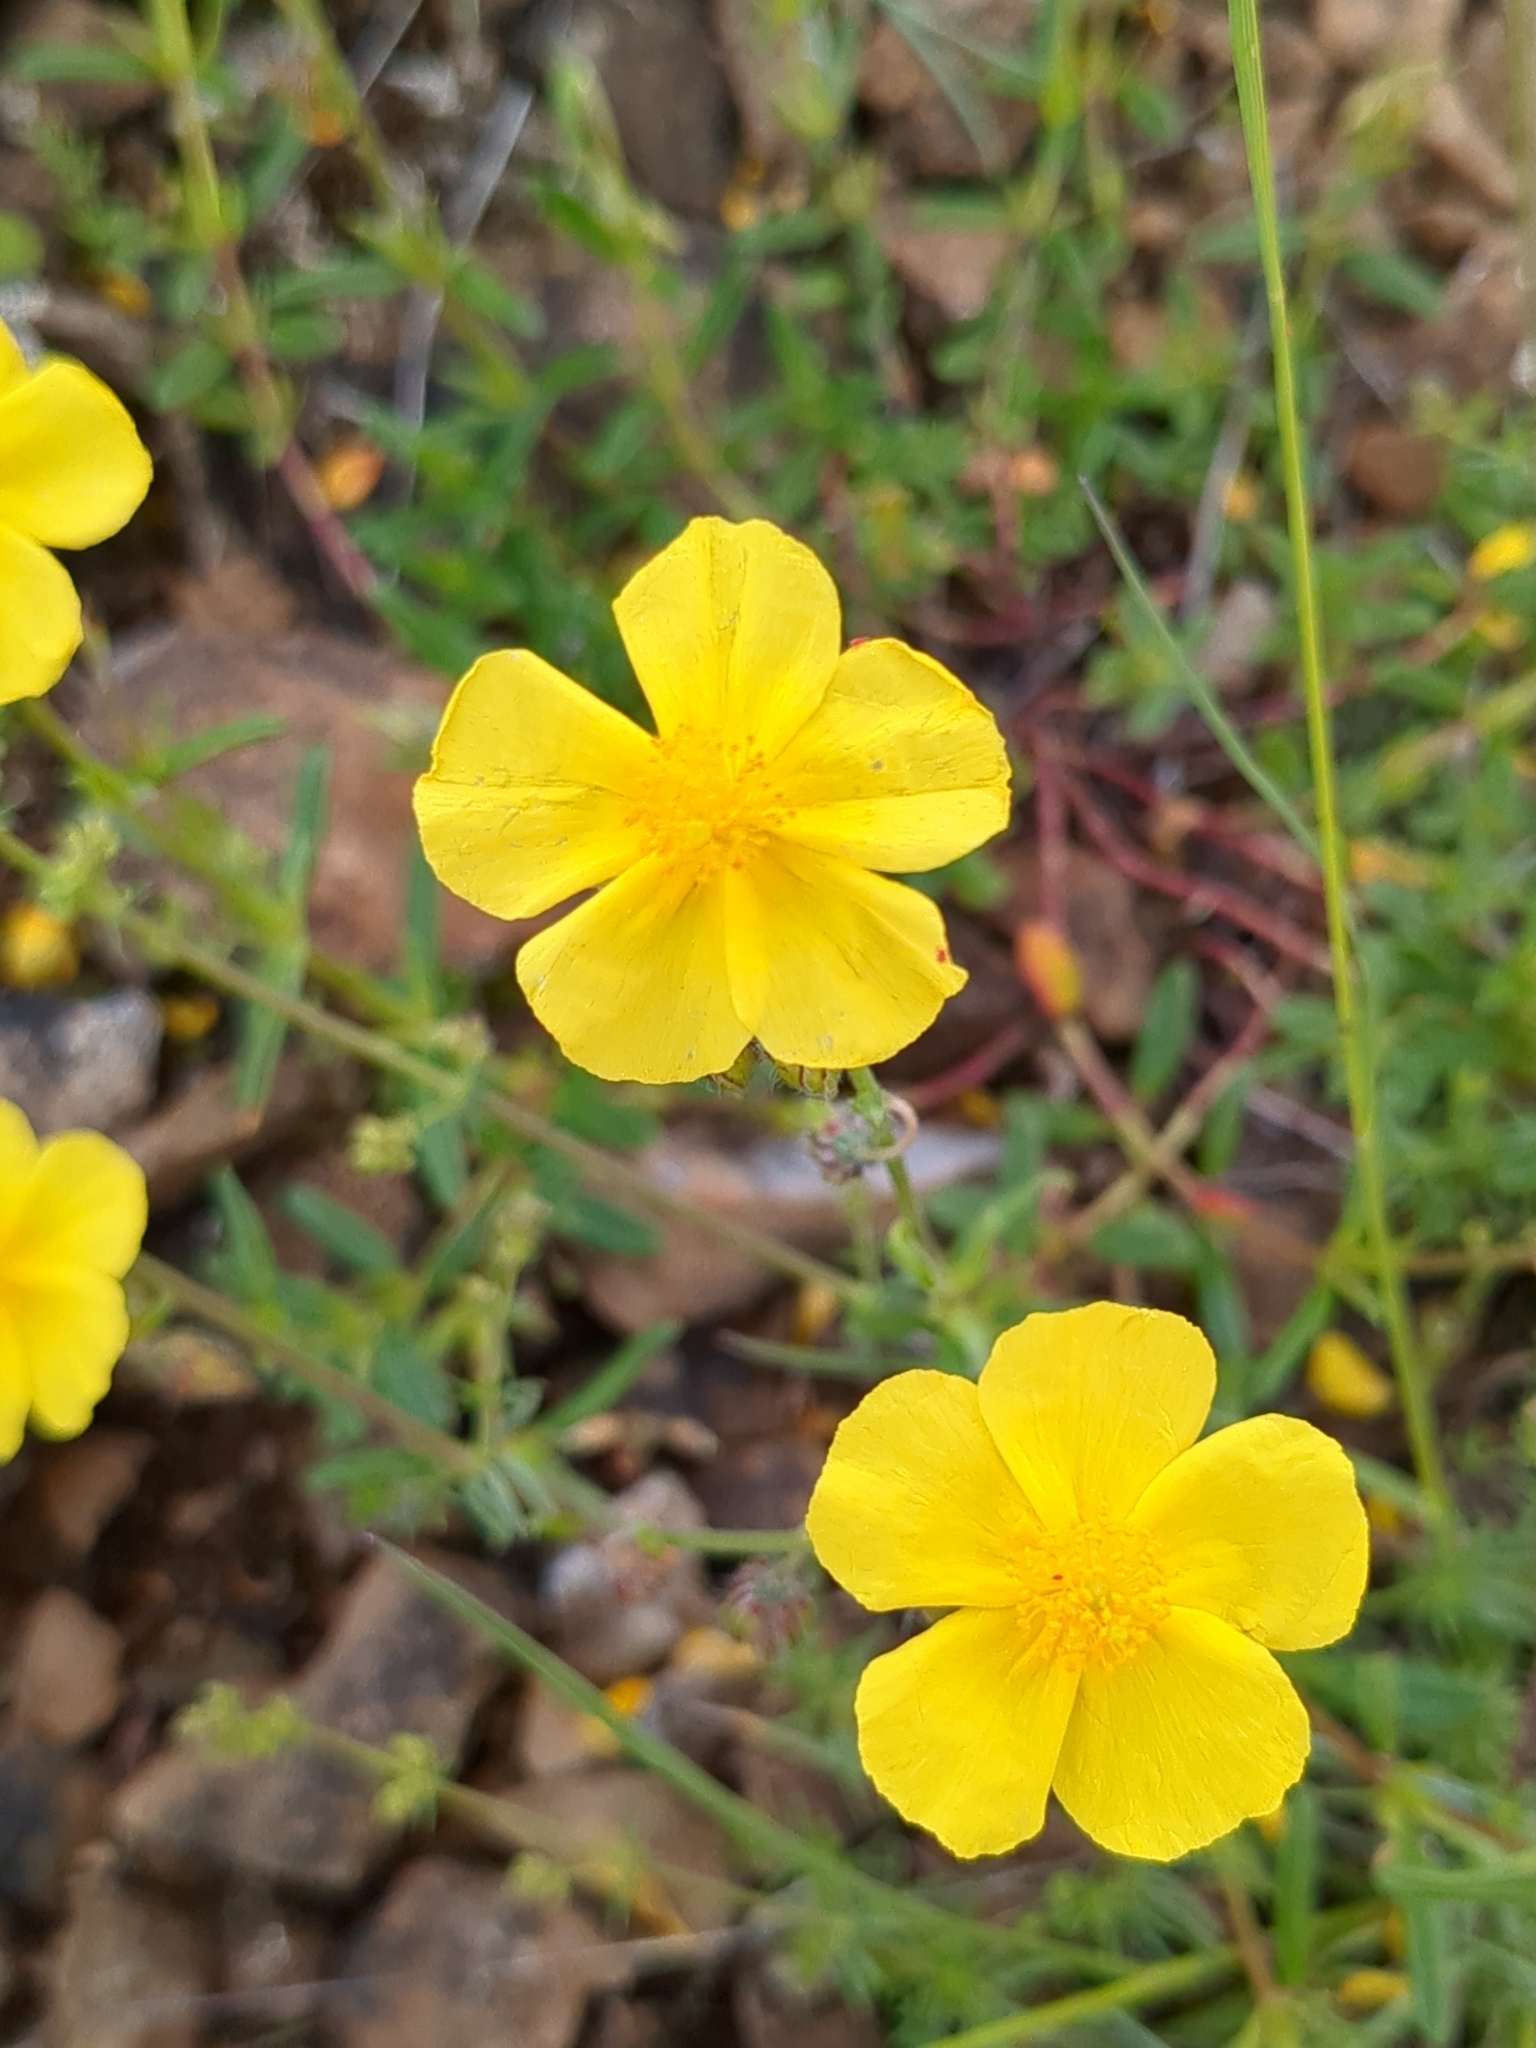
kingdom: Plantae
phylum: Tracheophyta
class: Magnoliopsida
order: Malvales
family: Cistaceae
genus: Helianthemum
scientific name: Helianthemum nummularium
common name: Common rock-rose
